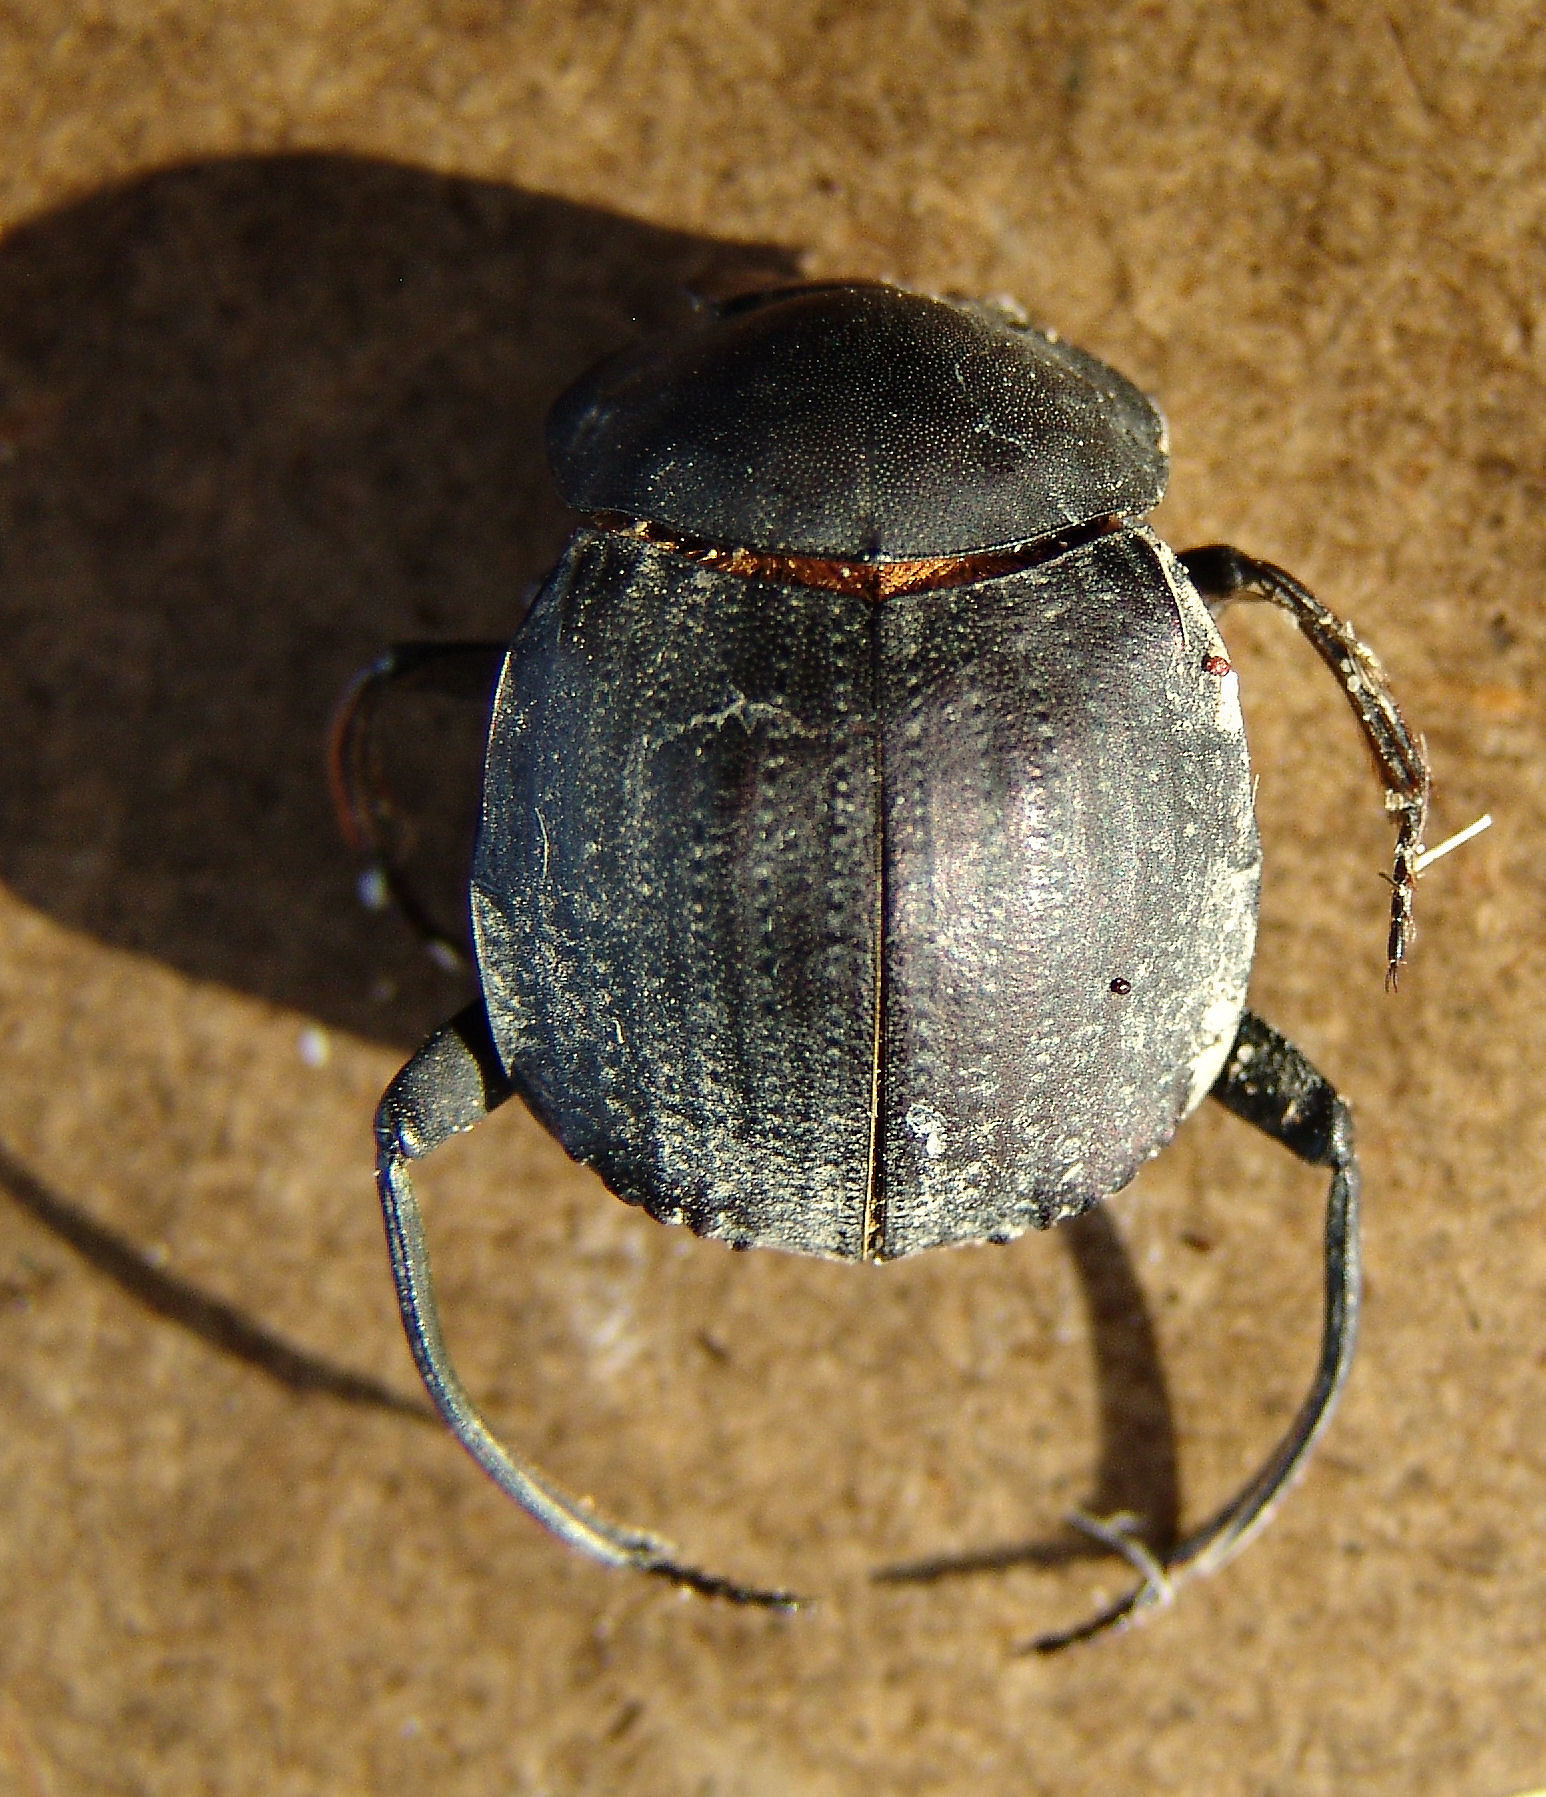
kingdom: Animalia
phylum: Arthropoda
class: Insecta
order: Coleoptera
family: Scarabaeidae
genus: Deltochilum
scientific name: Deltochilum gibbosum
